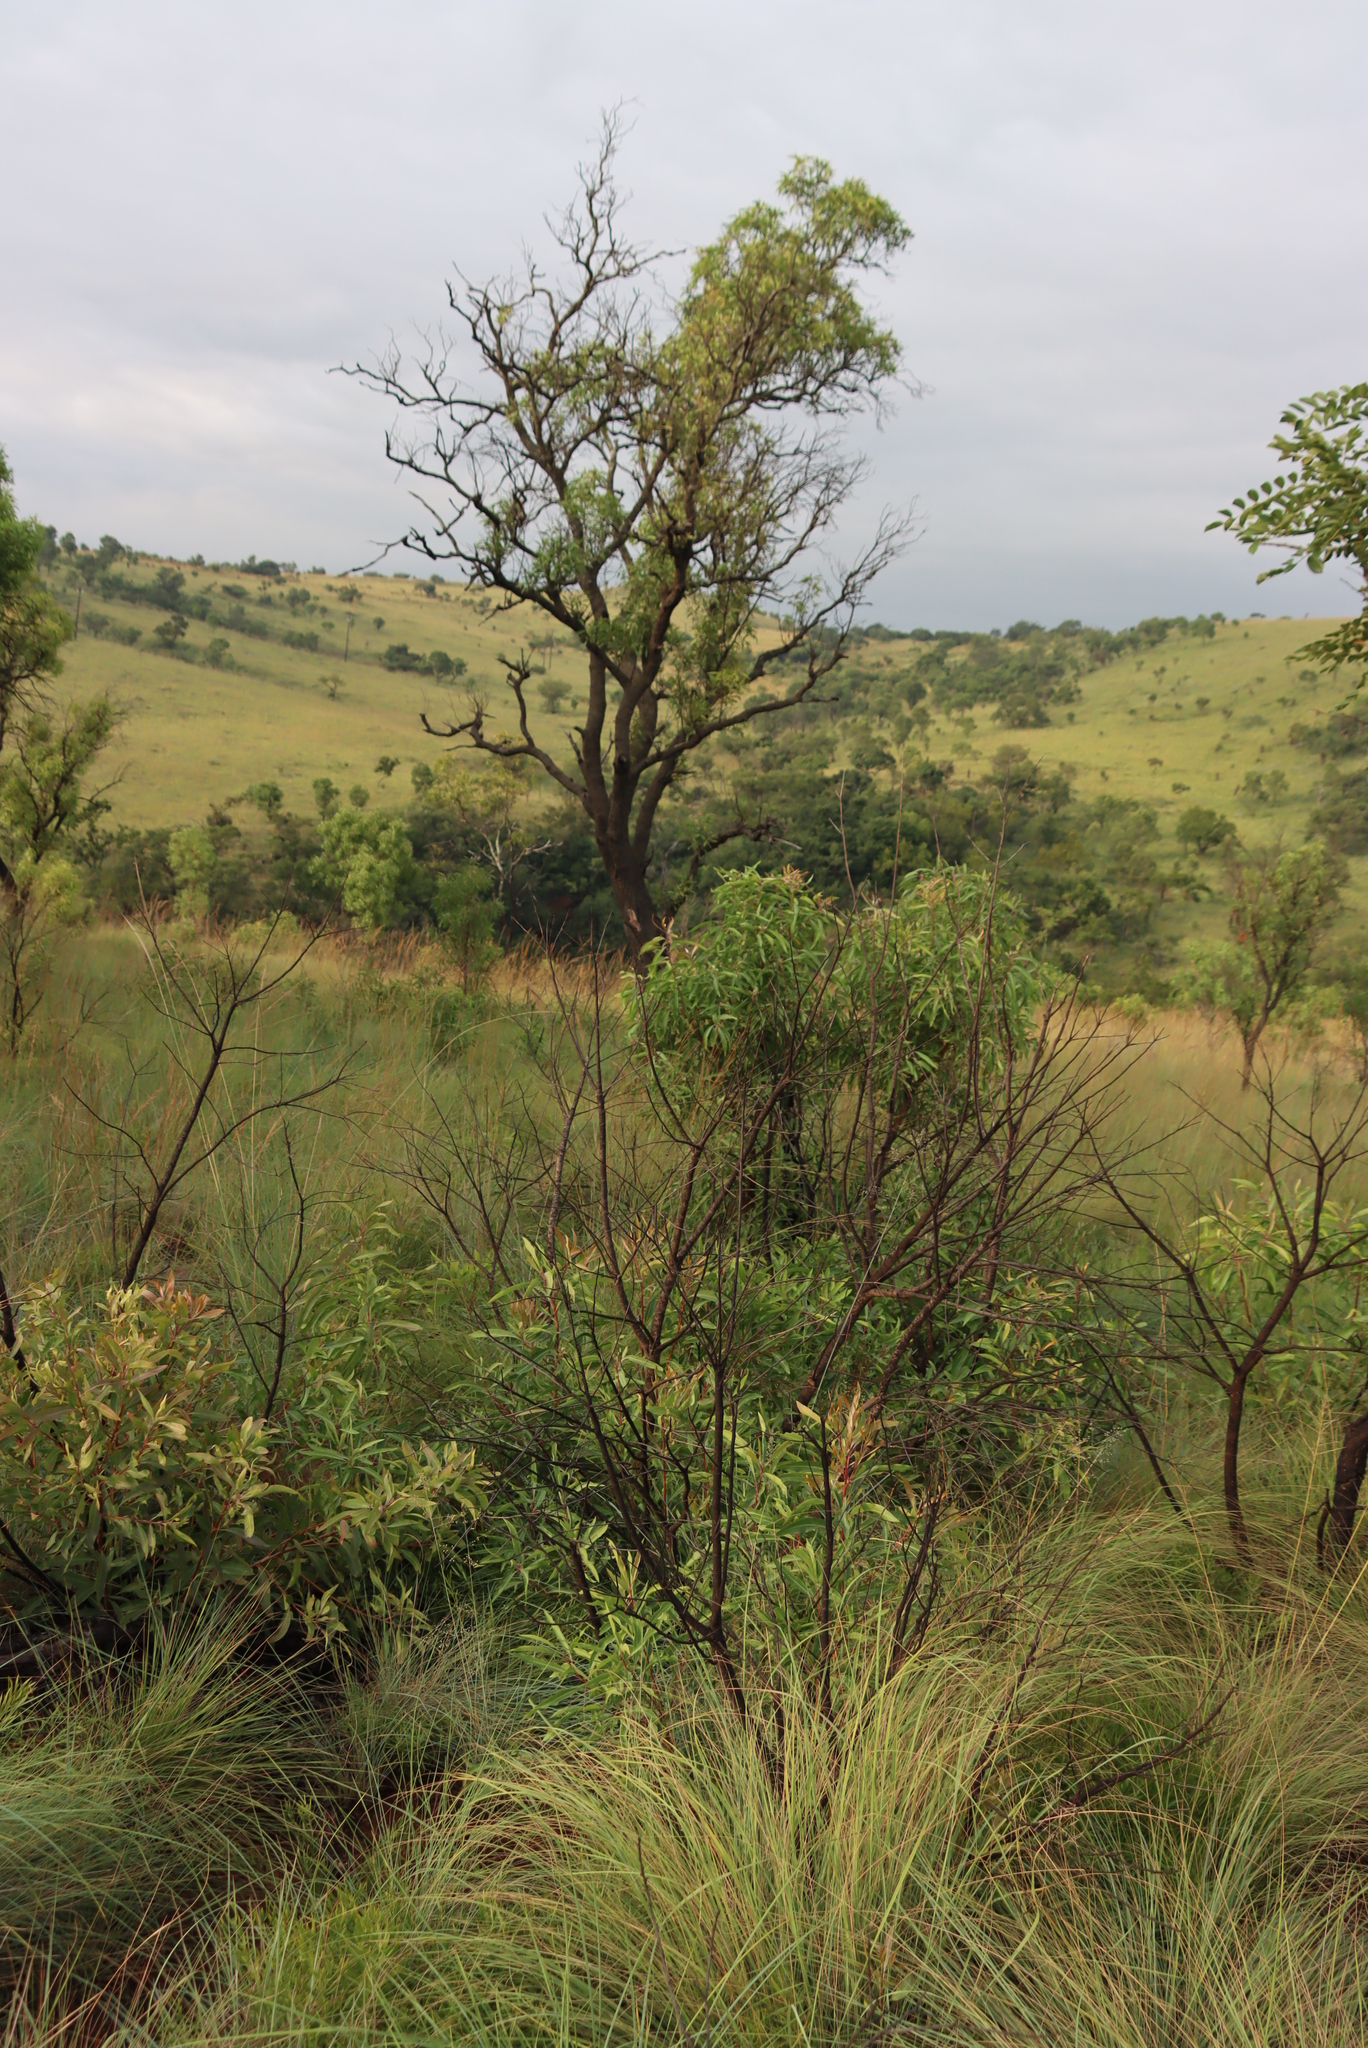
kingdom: Plantae
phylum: Tracheophyta
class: Magnoliopsida
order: Proteales
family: Proteaceae
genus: Faurea
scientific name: Faurea saligna
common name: African bean
